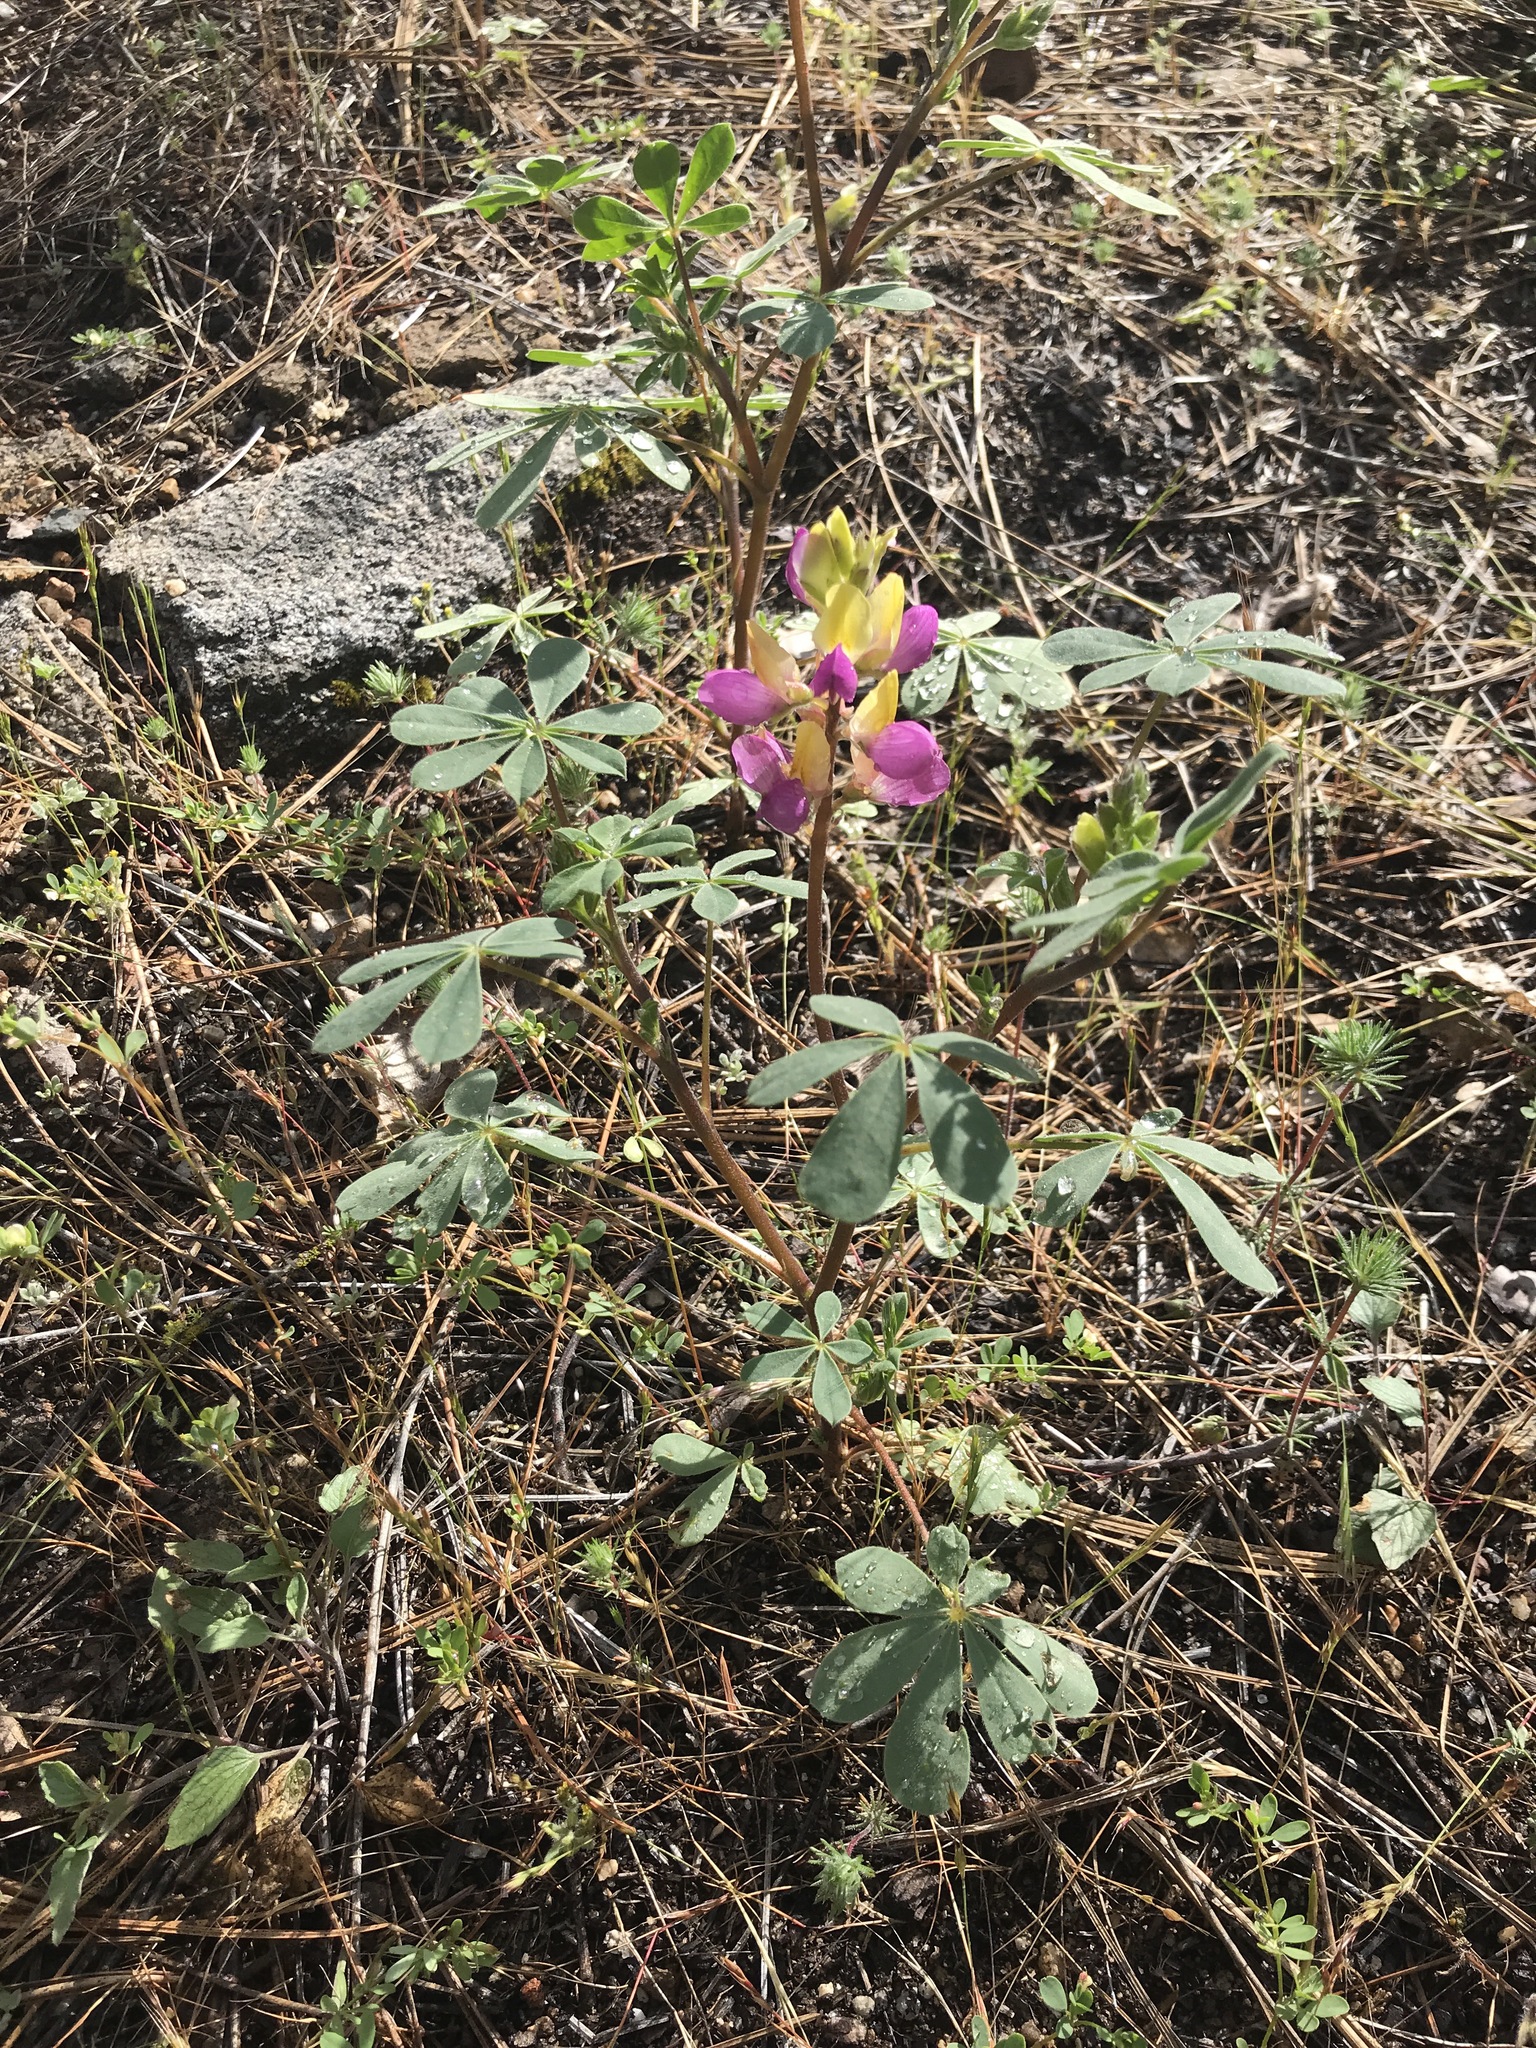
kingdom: Plantae
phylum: Tracheophyta
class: Magnoliopsida
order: Fabales
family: Fabaceae
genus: Lupinus
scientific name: Lupinus stiversii
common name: Harlequin lupine
